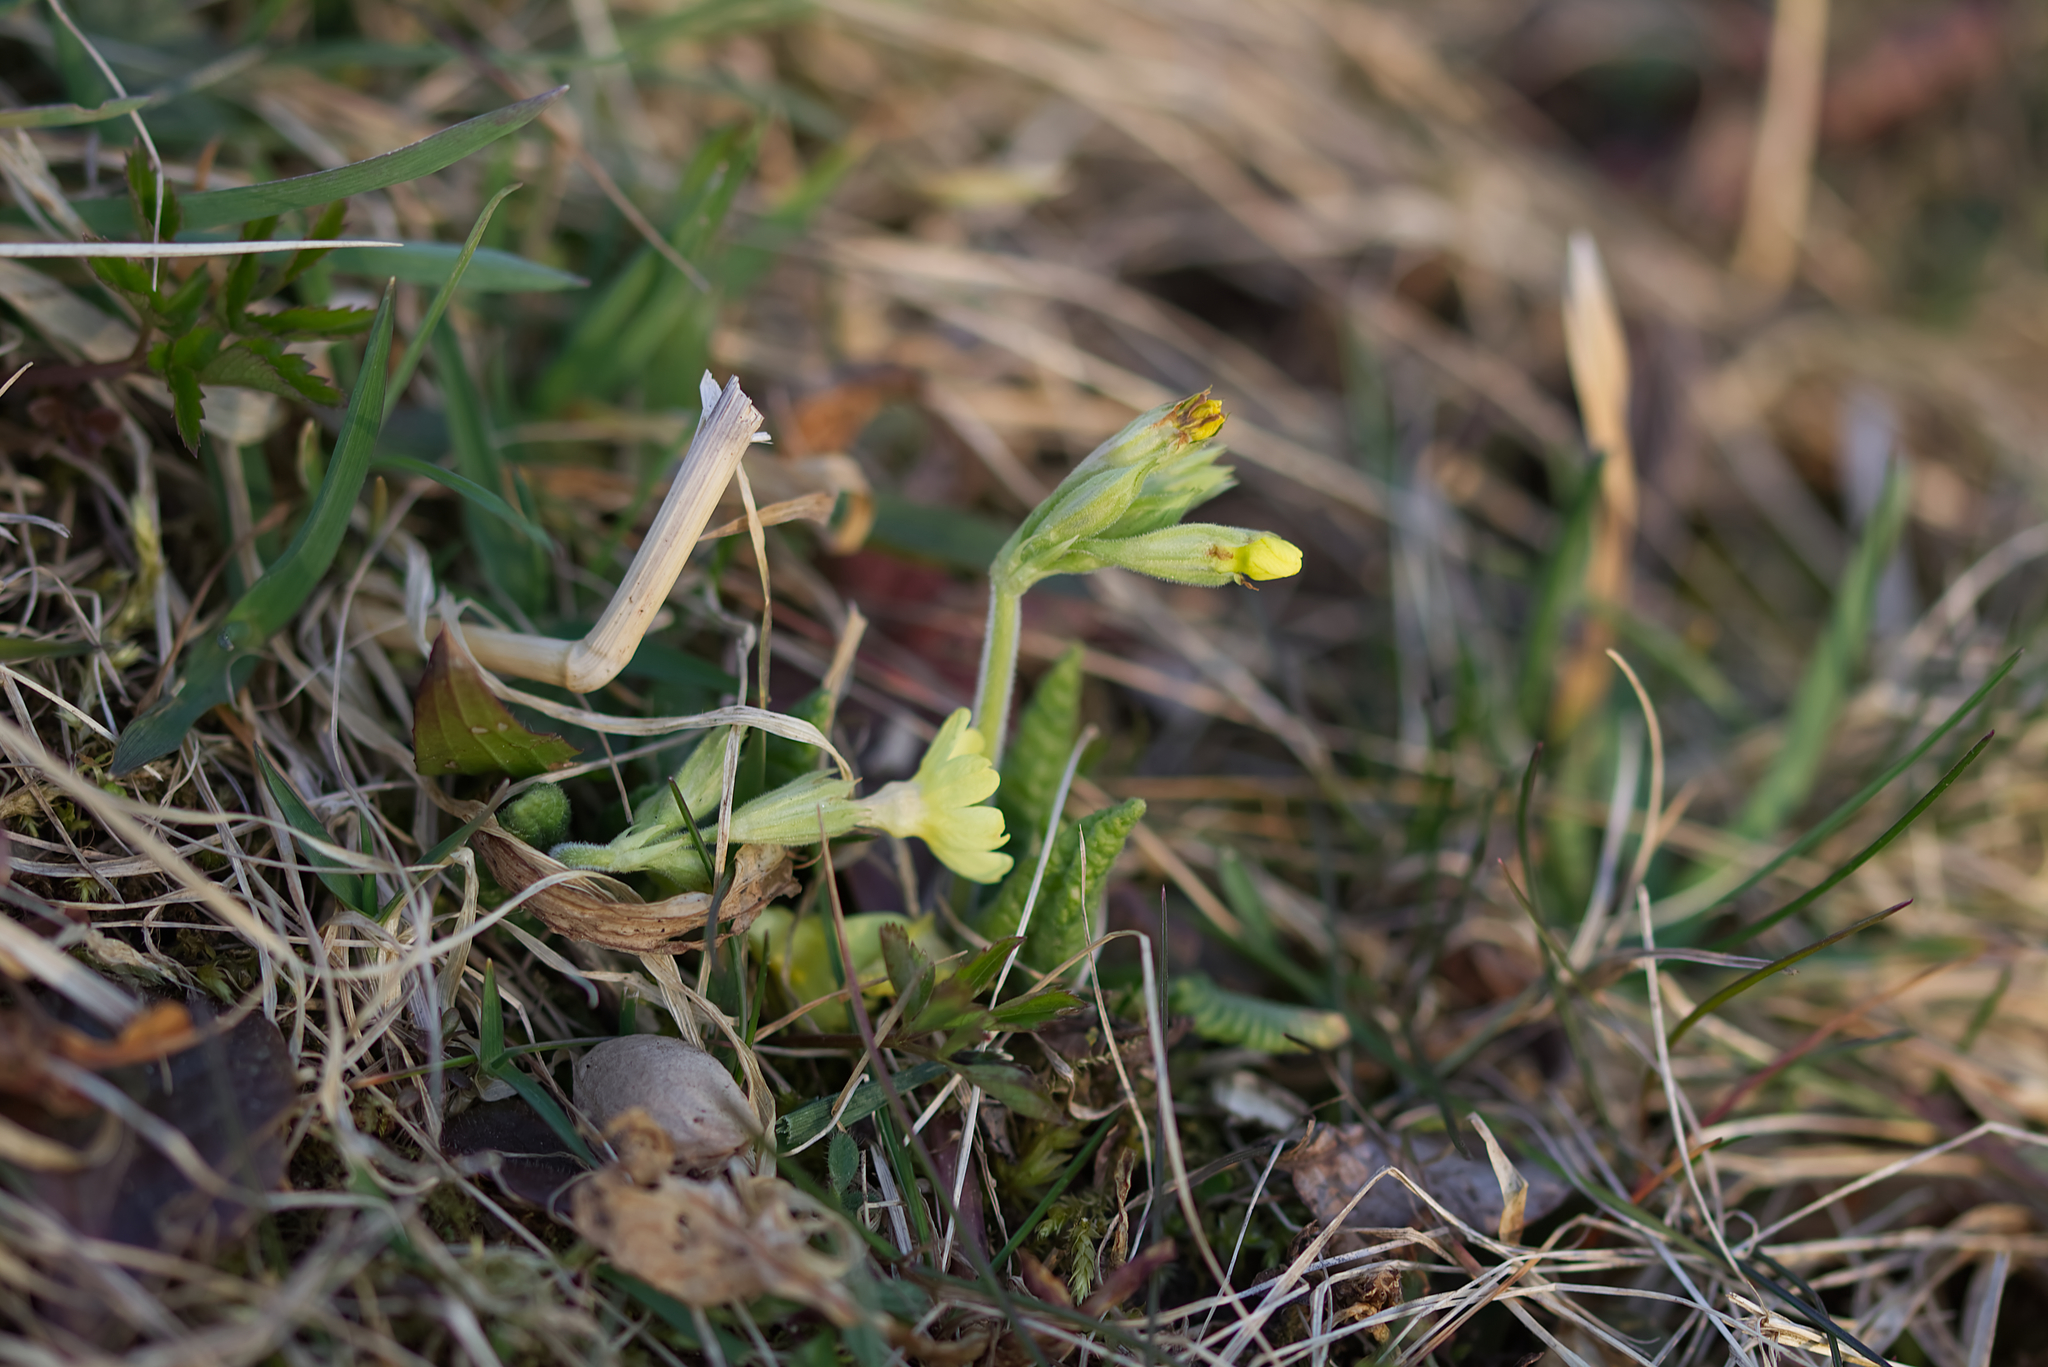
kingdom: Plantae
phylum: Tracheophyta
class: Magnoliopsida
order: Ericales
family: Primulaceae
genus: Primula
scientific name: Primula elatior
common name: Oxlip
